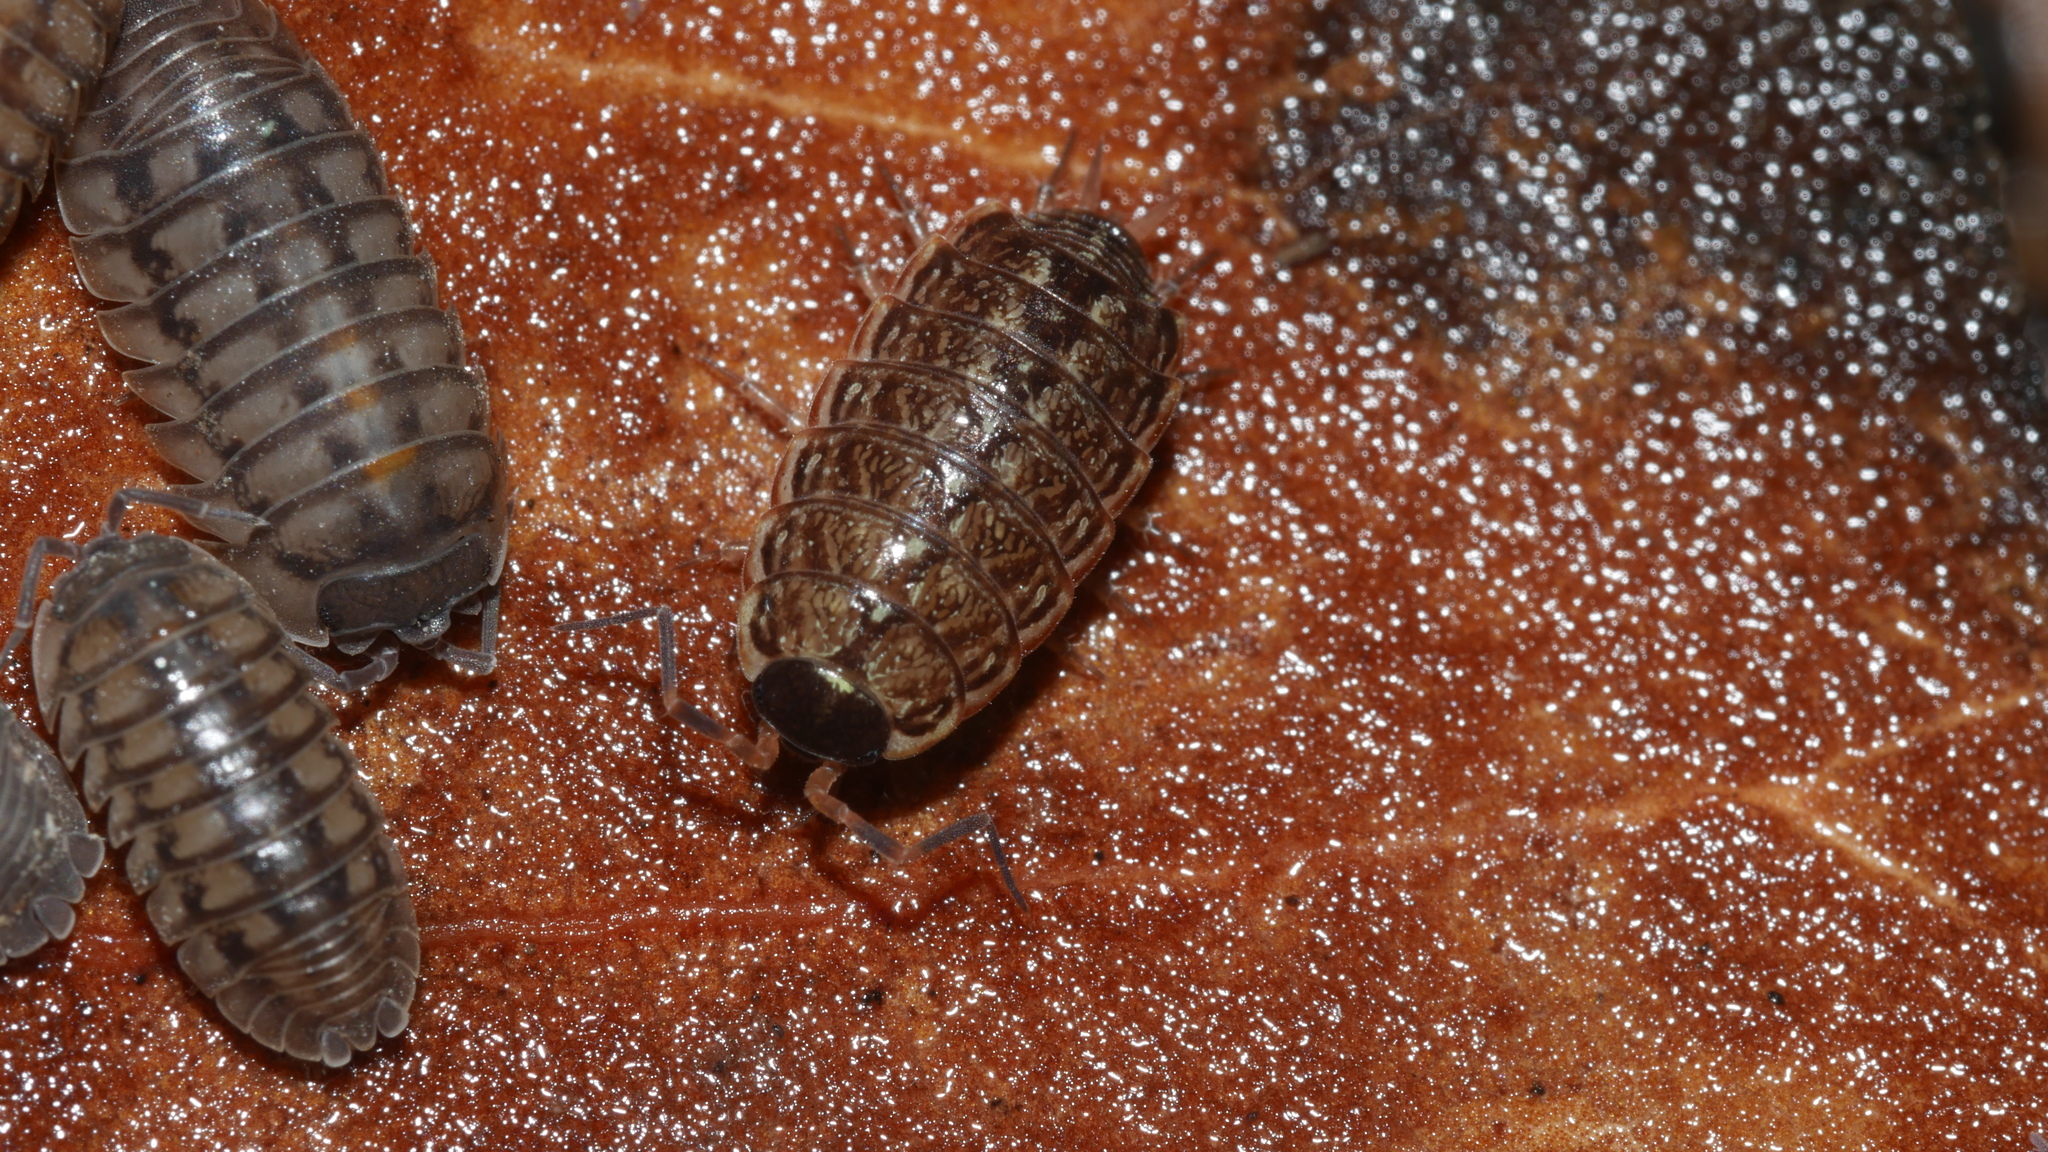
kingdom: Animalia
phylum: Arthropoda
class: Malacostraca
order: Isopoda
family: Philosciidae
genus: Philoscia
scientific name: Philoscia muscorum
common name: Common striped woodlouse
